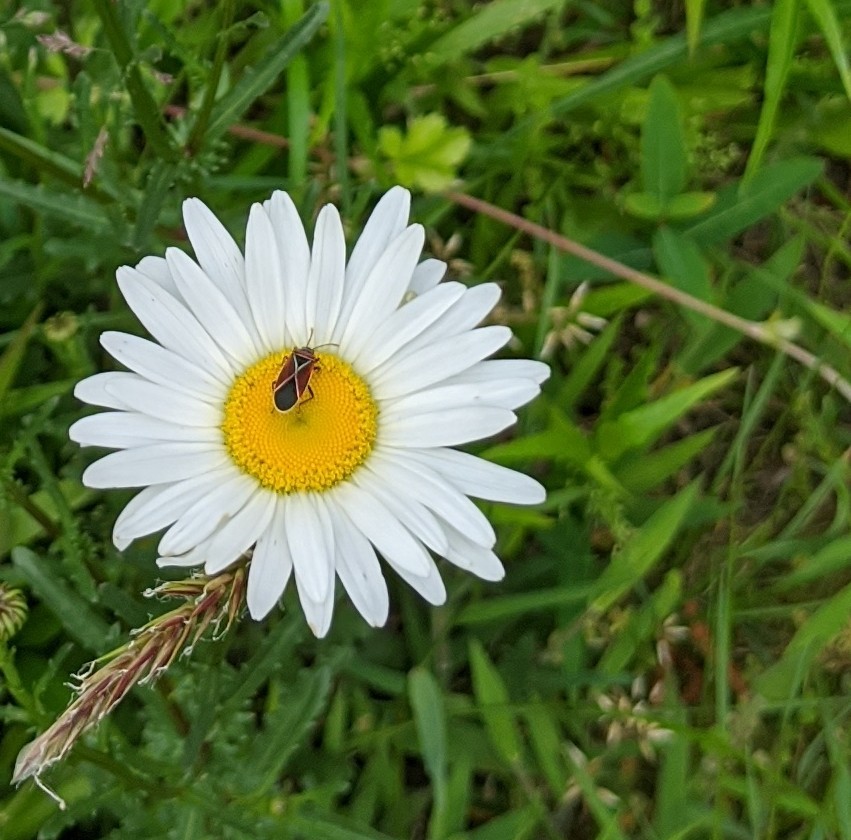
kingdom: Animalia
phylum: Arthropoda
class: Insecta
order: Hemiptera
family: Lygaeidae
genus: Neacoryphus
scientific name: Neacoryphus bicrucis
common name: Lygaeid bug
